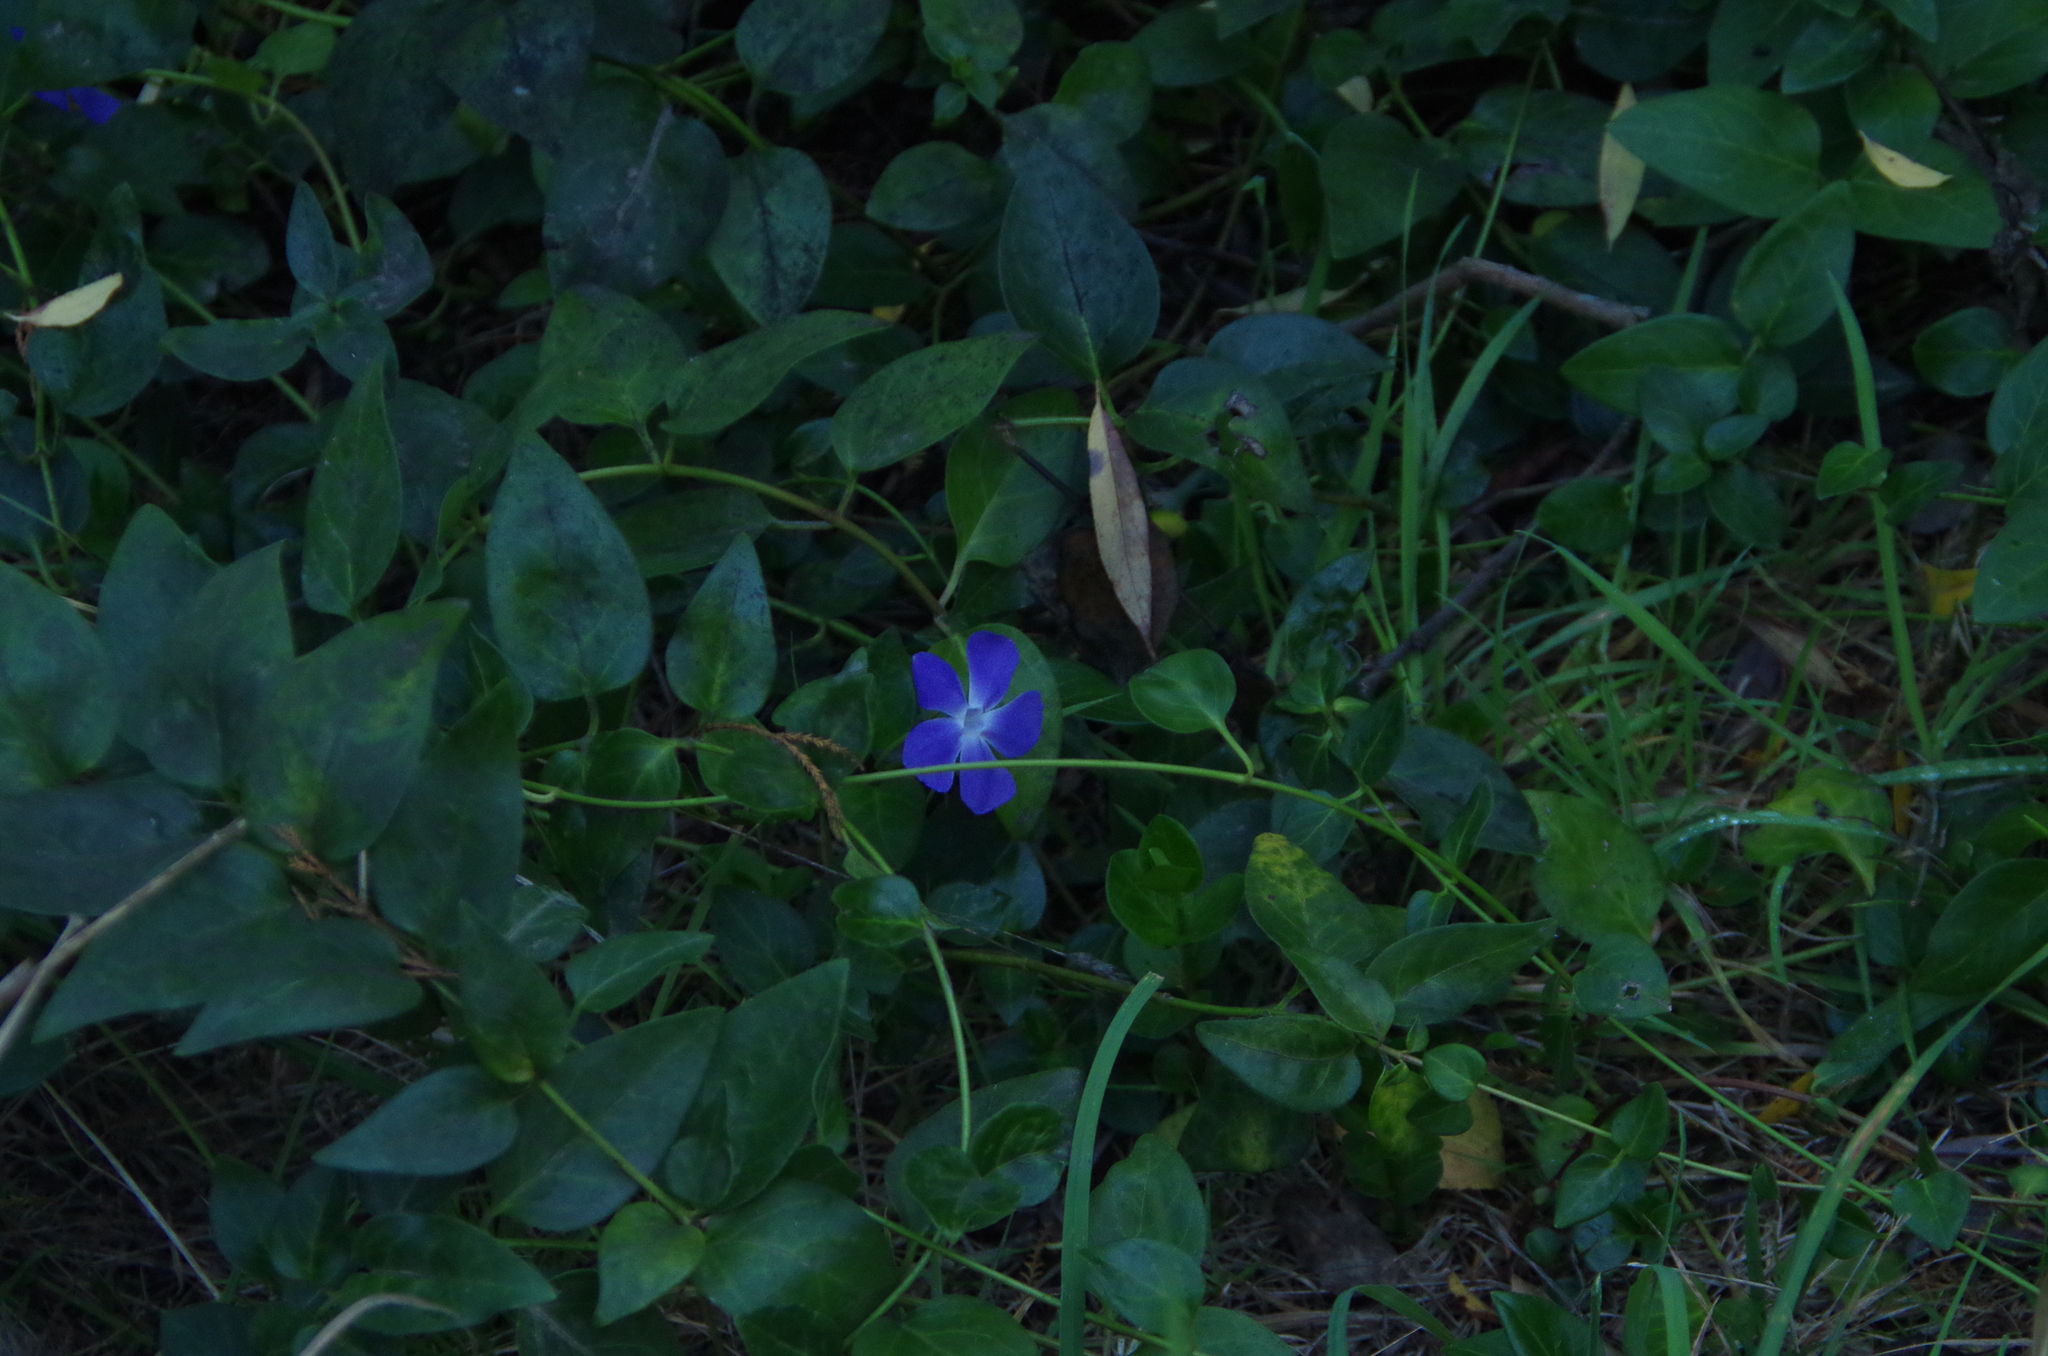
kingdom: Plantae
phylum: Tracheophyta
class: Magnoliopsida
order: Gentianales
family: Apocynaceae
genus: Vinca
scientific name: Vinca major
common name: Greater periwinkle
